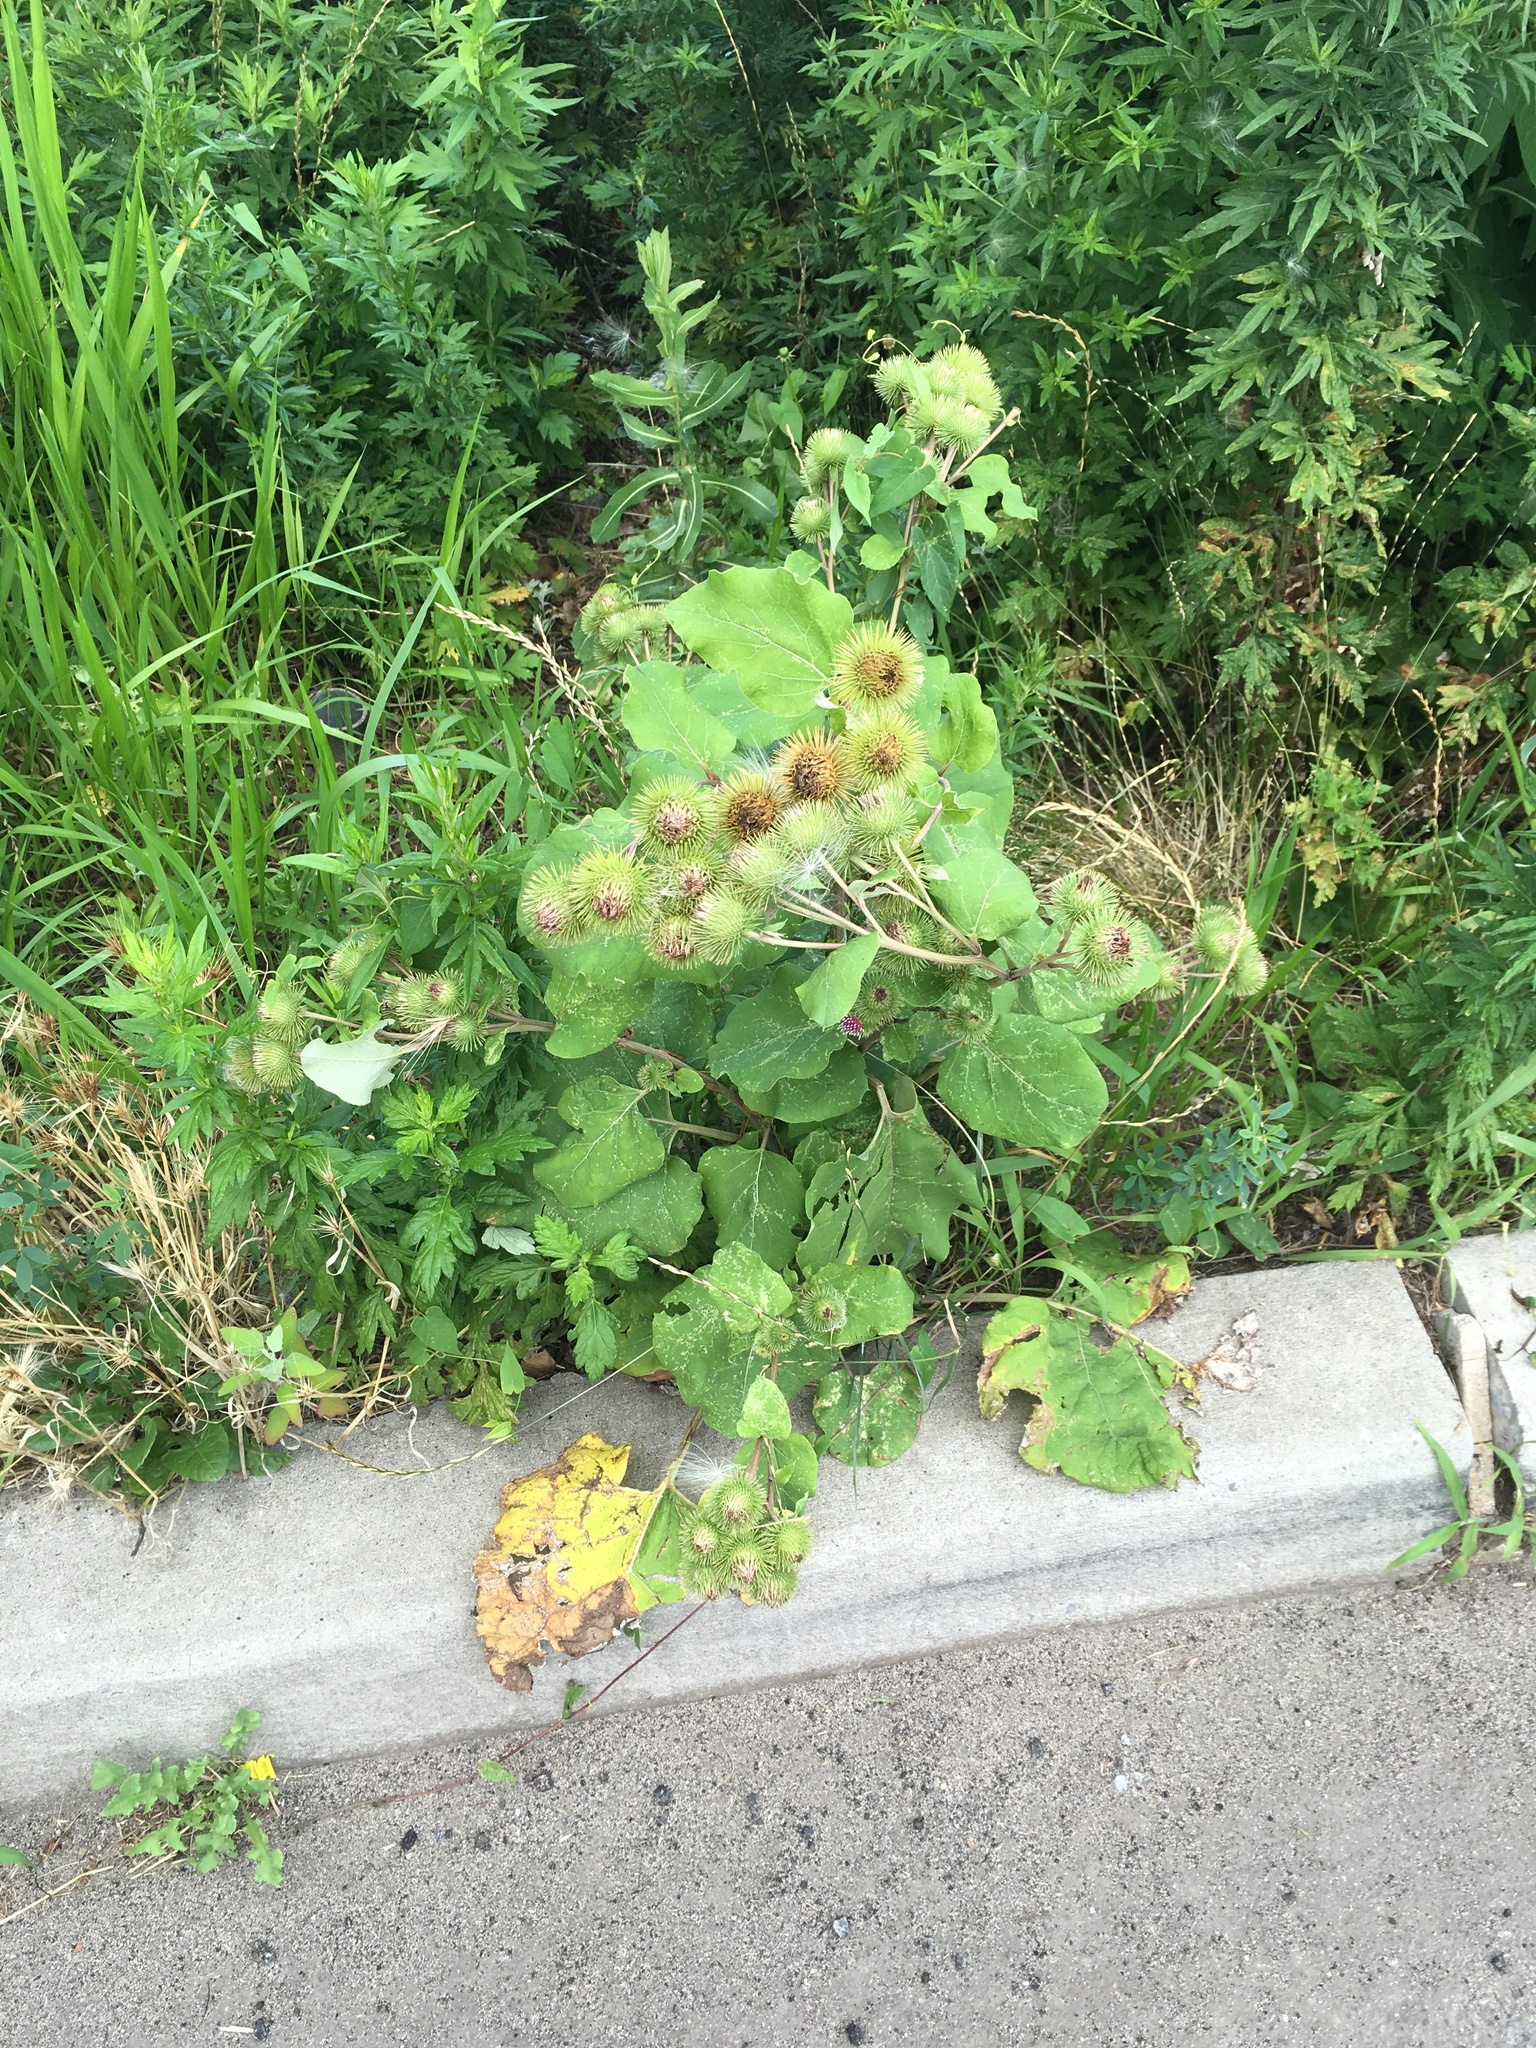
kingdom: Plantae
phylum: Tracheophyta
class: Magnoliopsida
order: Asterales
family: Asteraceae
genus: Arctium
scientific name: Arctium lappa
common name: Greater burdock
